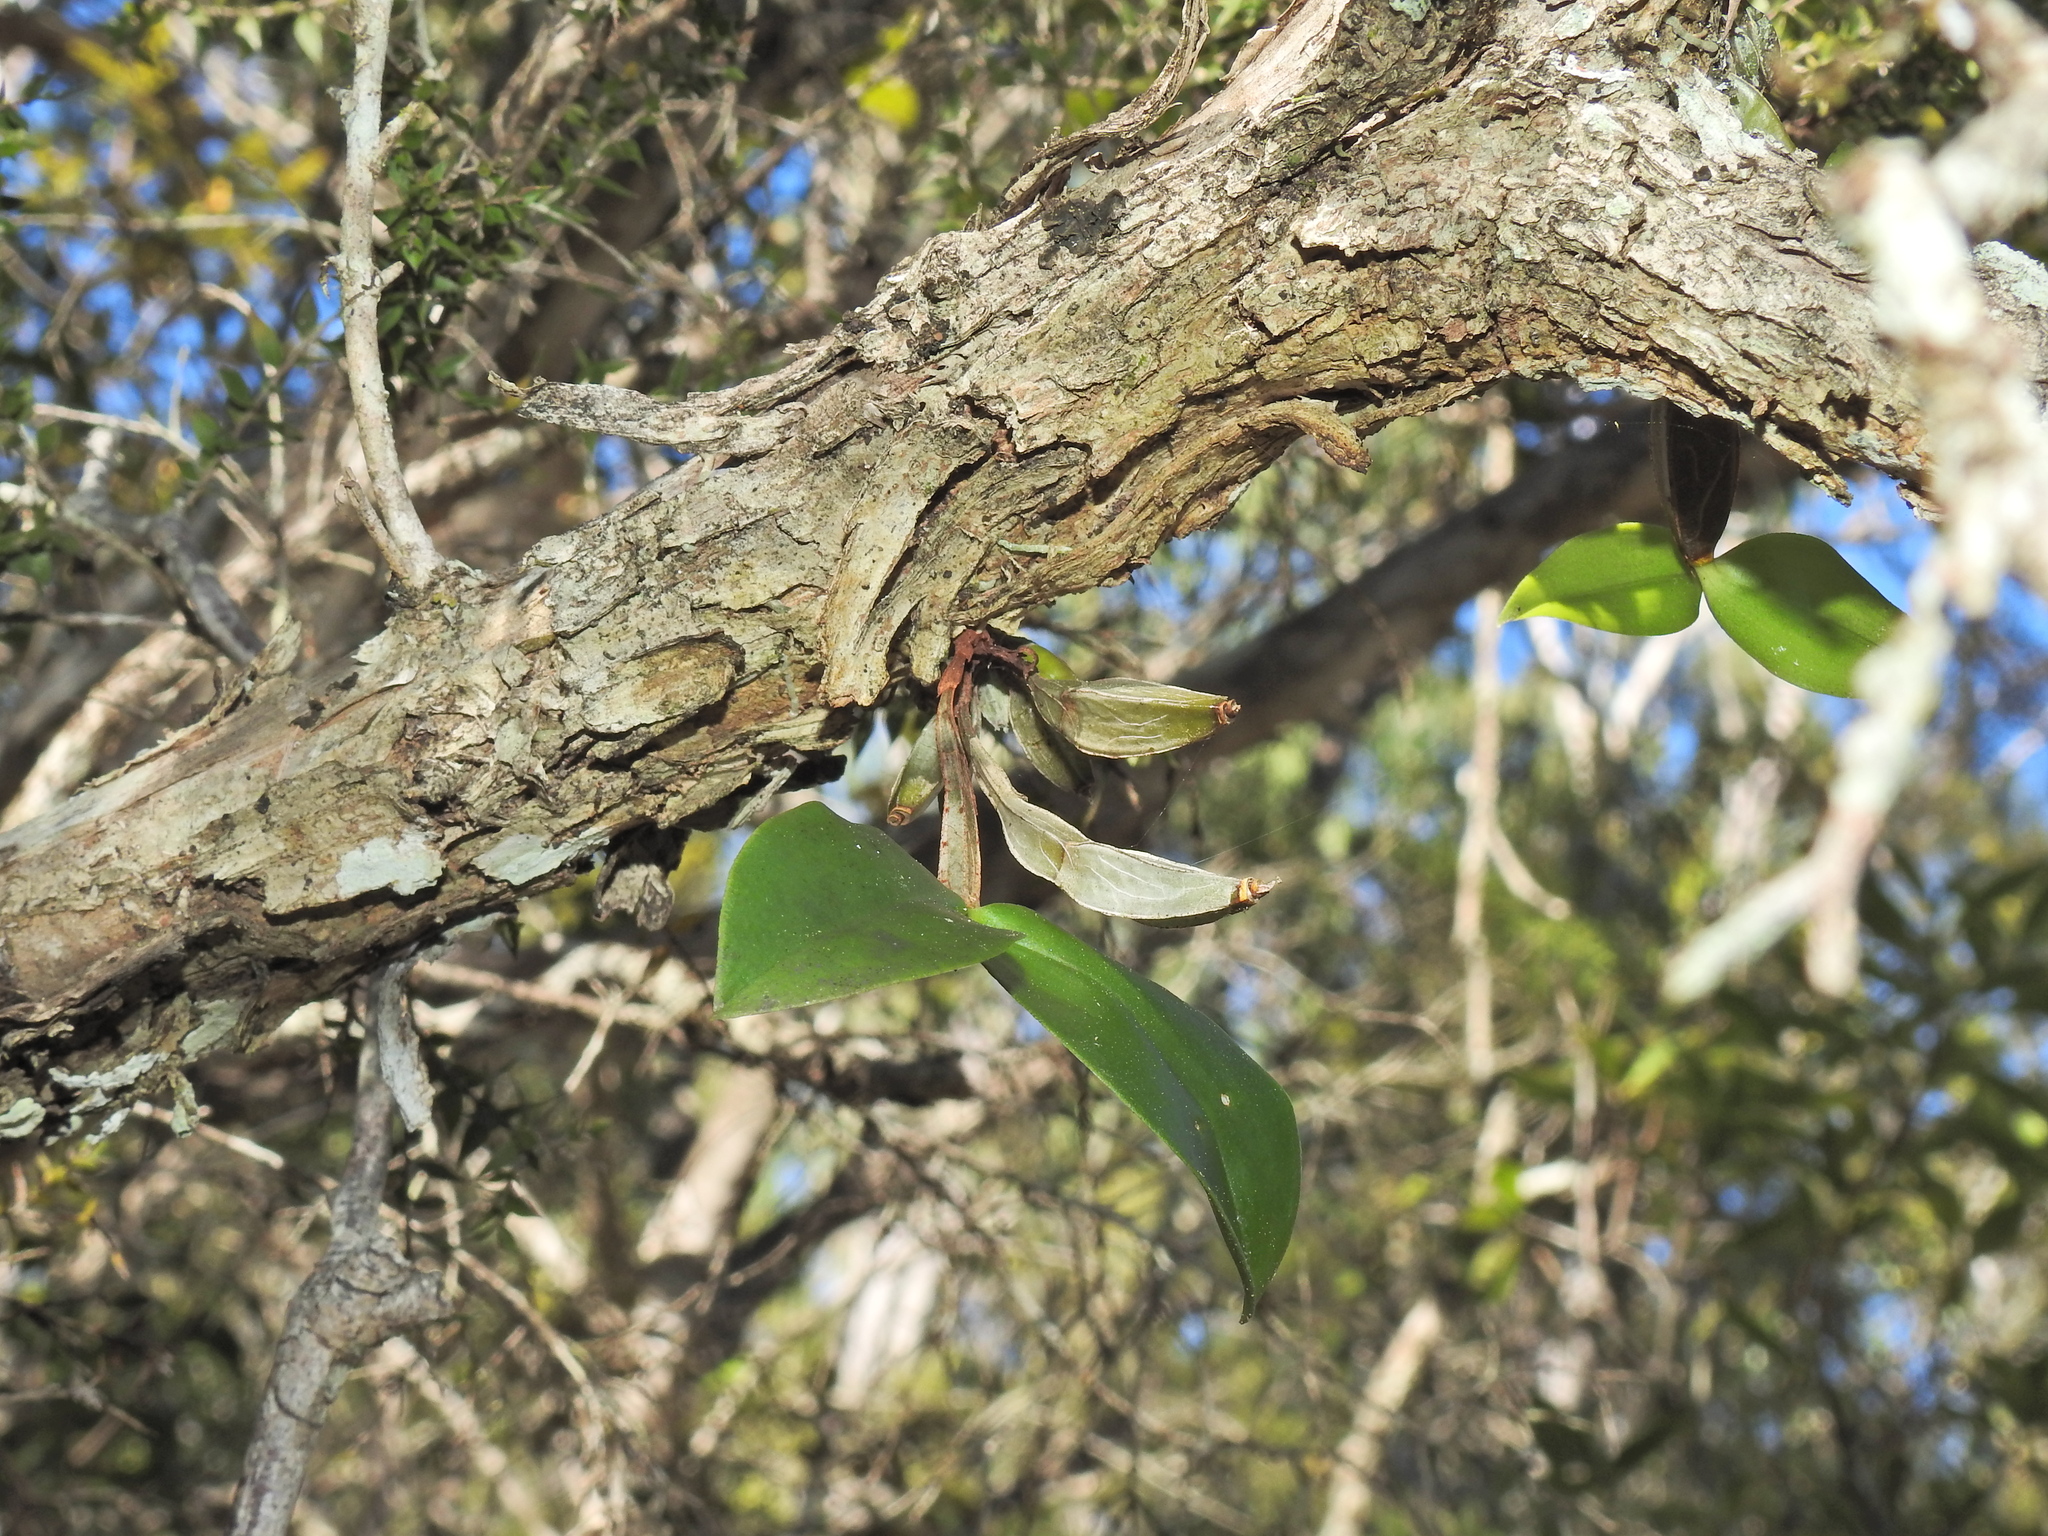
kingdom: Plantae
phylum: Tracheophyta
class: Liliopsida
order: Asparagales
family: Orchidaceae
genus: Dendrobium
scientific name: Dendrobium tetragonum
